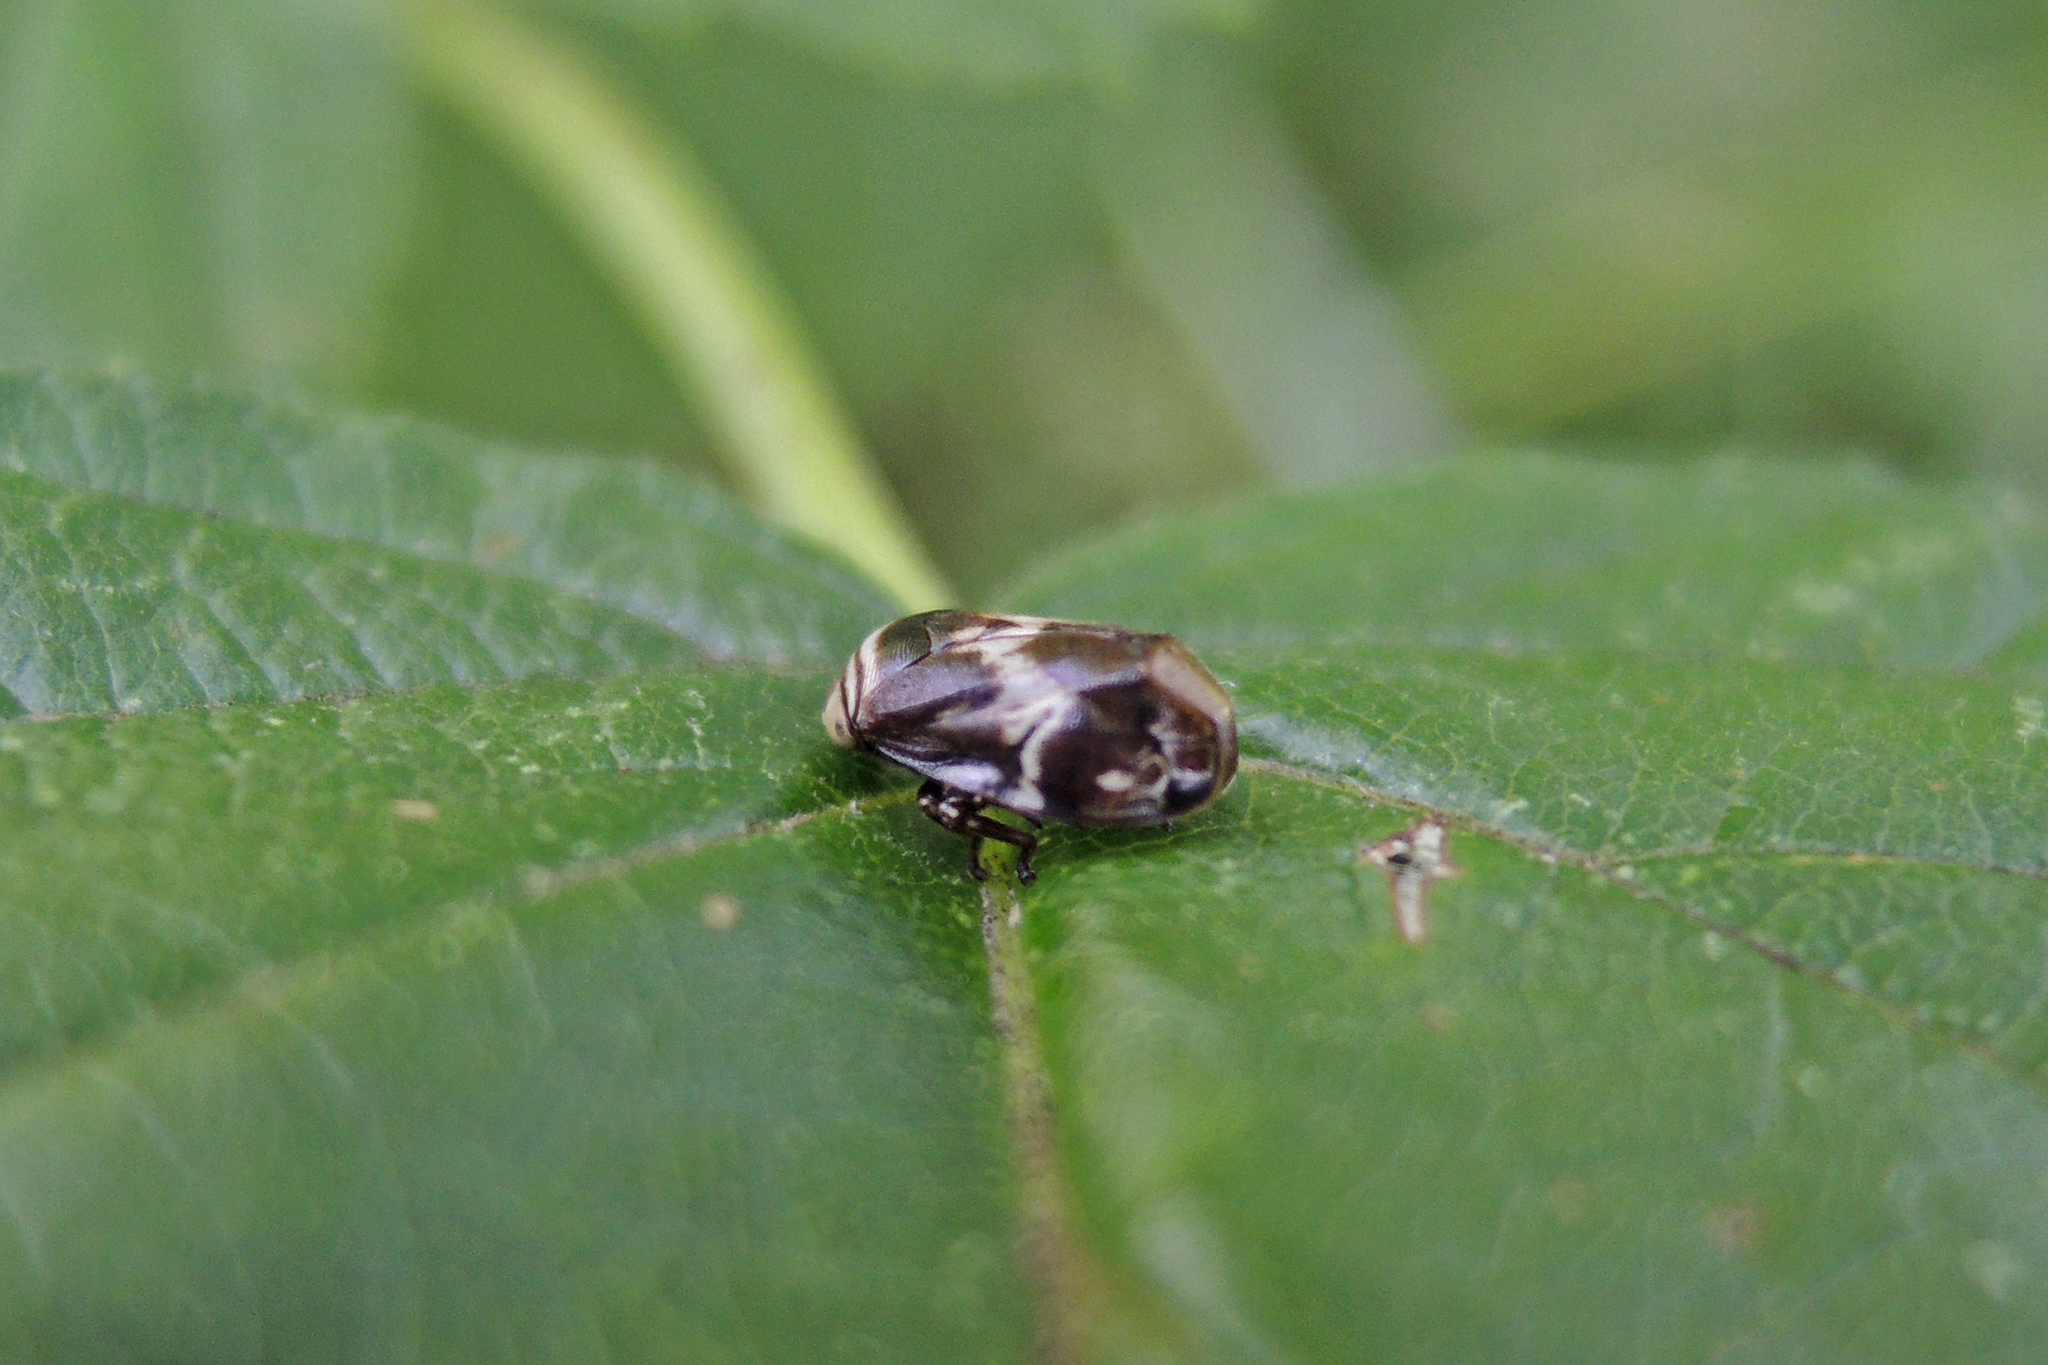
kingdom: Animalia
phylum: Arthropoda
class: Insecta
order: Hemiptera
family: Clastopteridae
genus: Clastoptera
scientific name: Clastoptera obtusa
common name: Alder spittlebug
